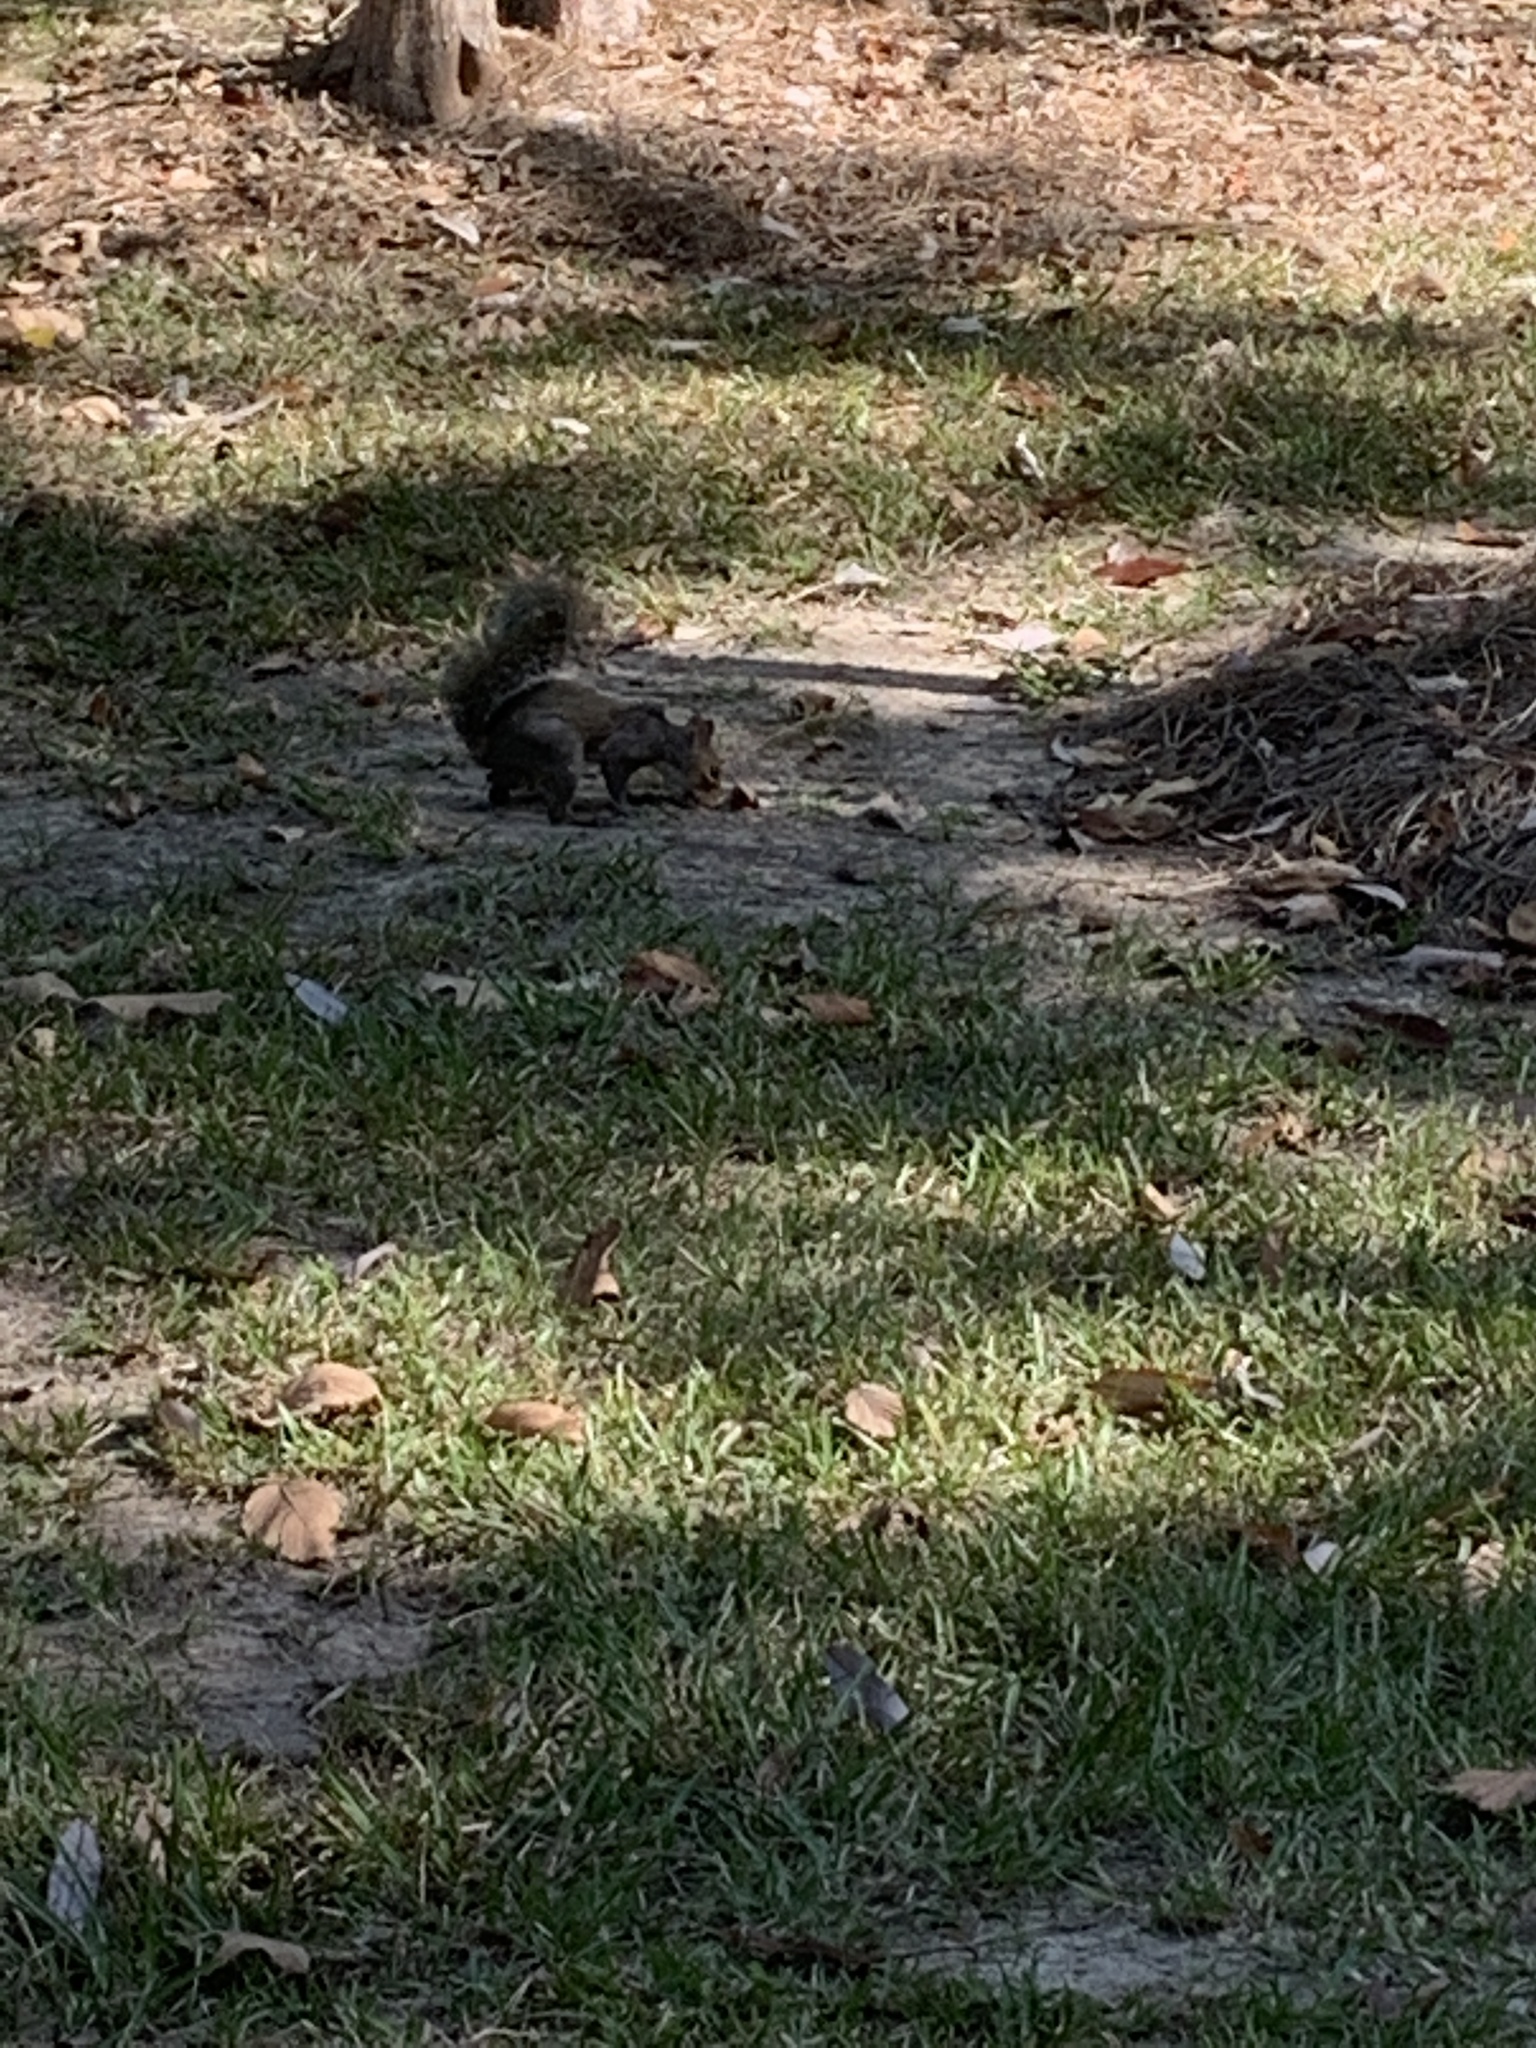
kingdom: Animalia
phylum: Chordata
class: Mammalia
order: Rodentia
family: Sciuridae
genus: Sciurus
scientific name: Sciurus carolinensis
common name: Eastern gray squirrel
